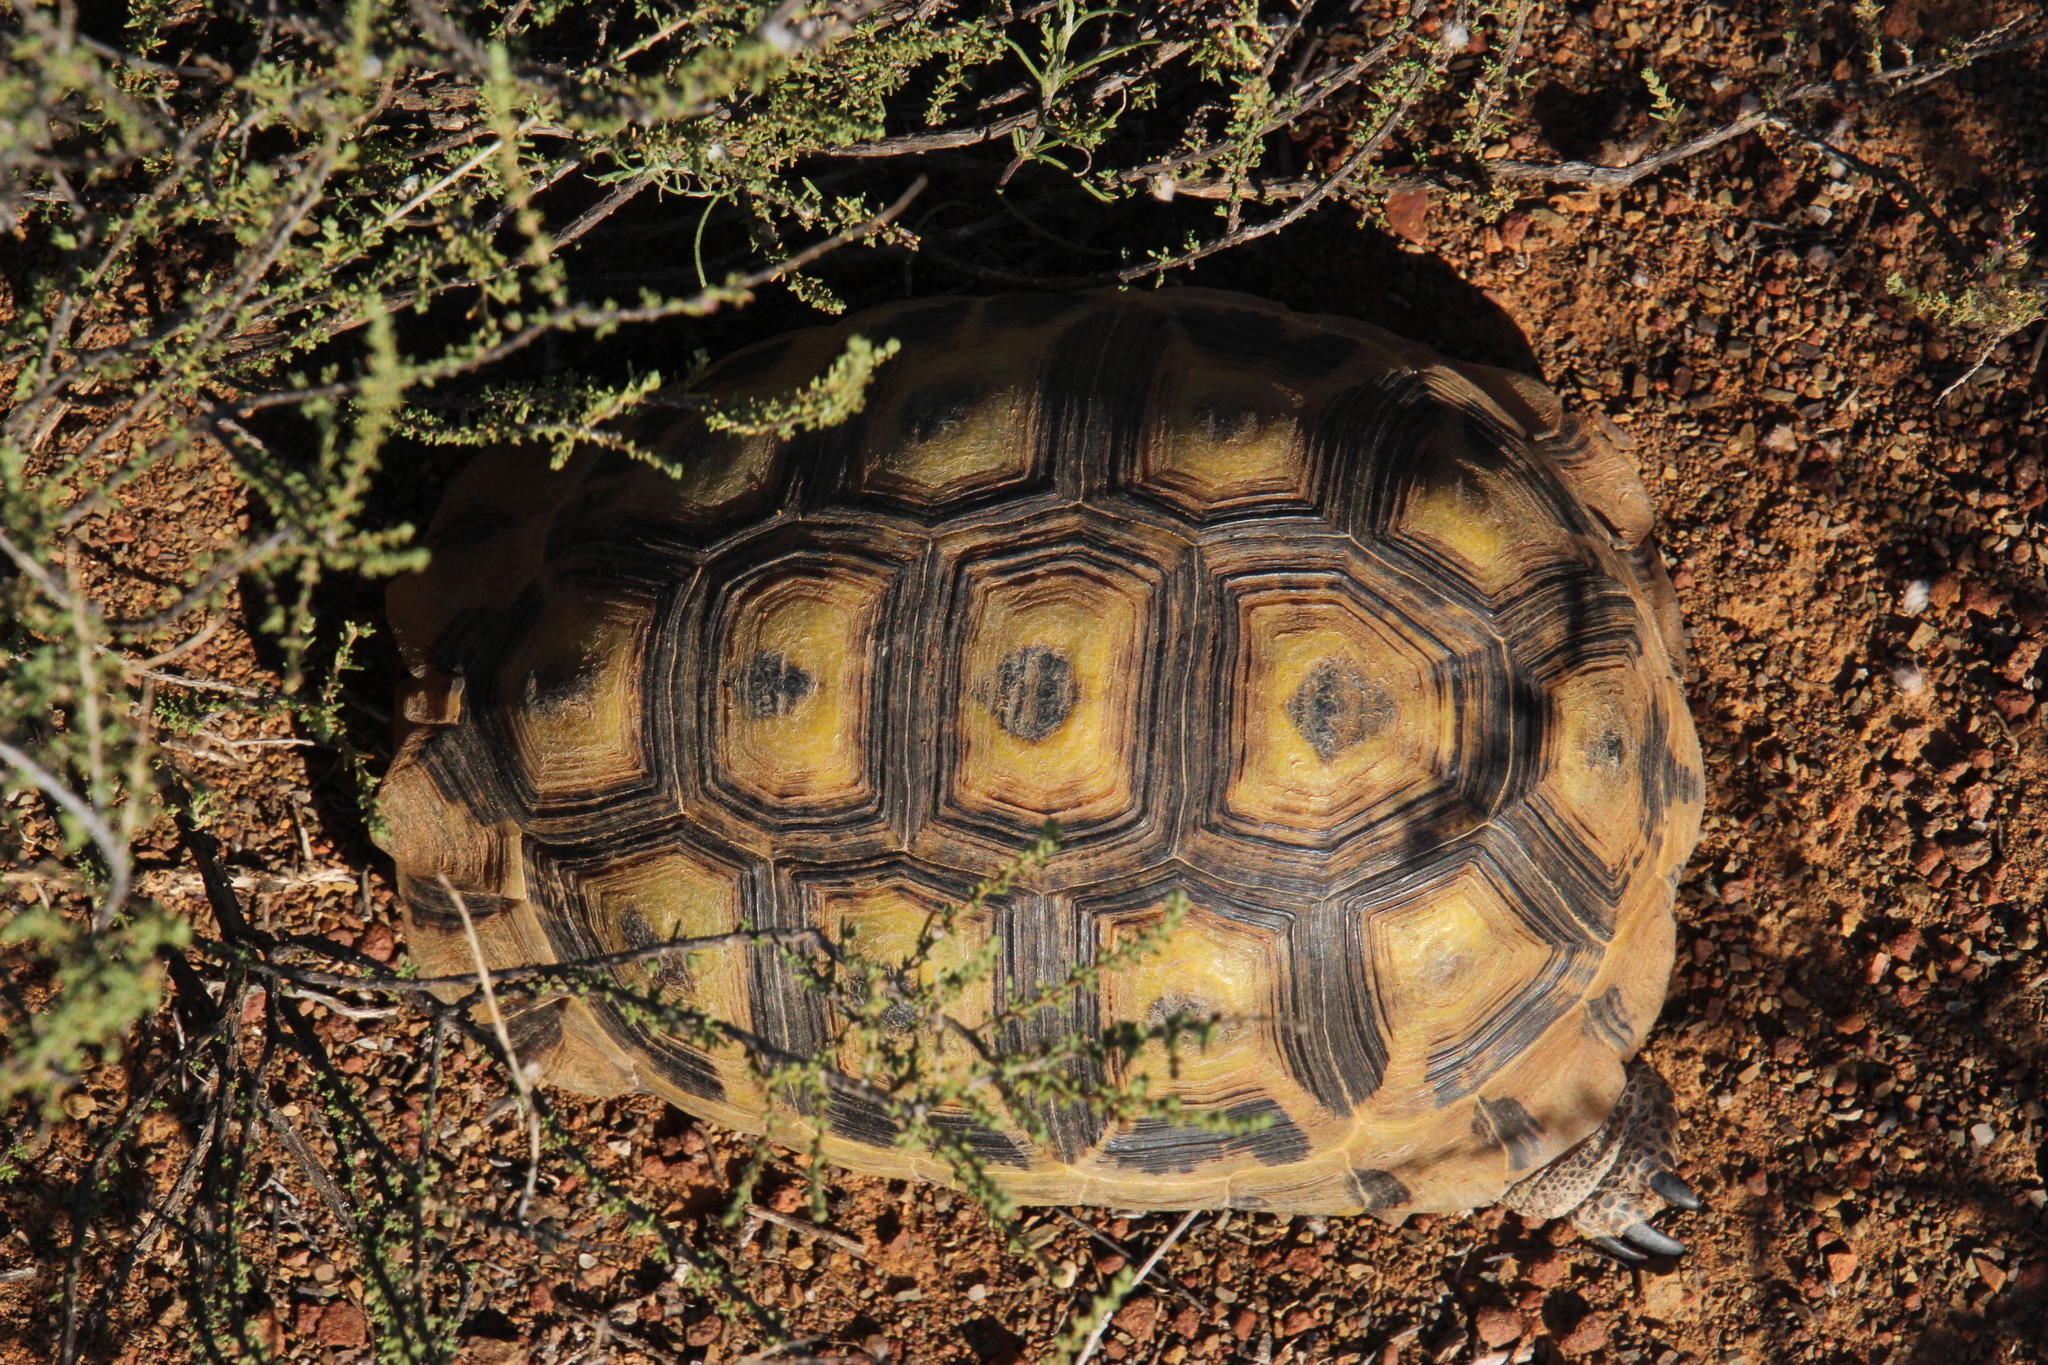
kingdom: Animalia
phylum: Chordata
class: Testudines
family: Testudinidae
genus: Chersina
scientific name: Chersina angulata
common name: South african bowsprit tortoise
